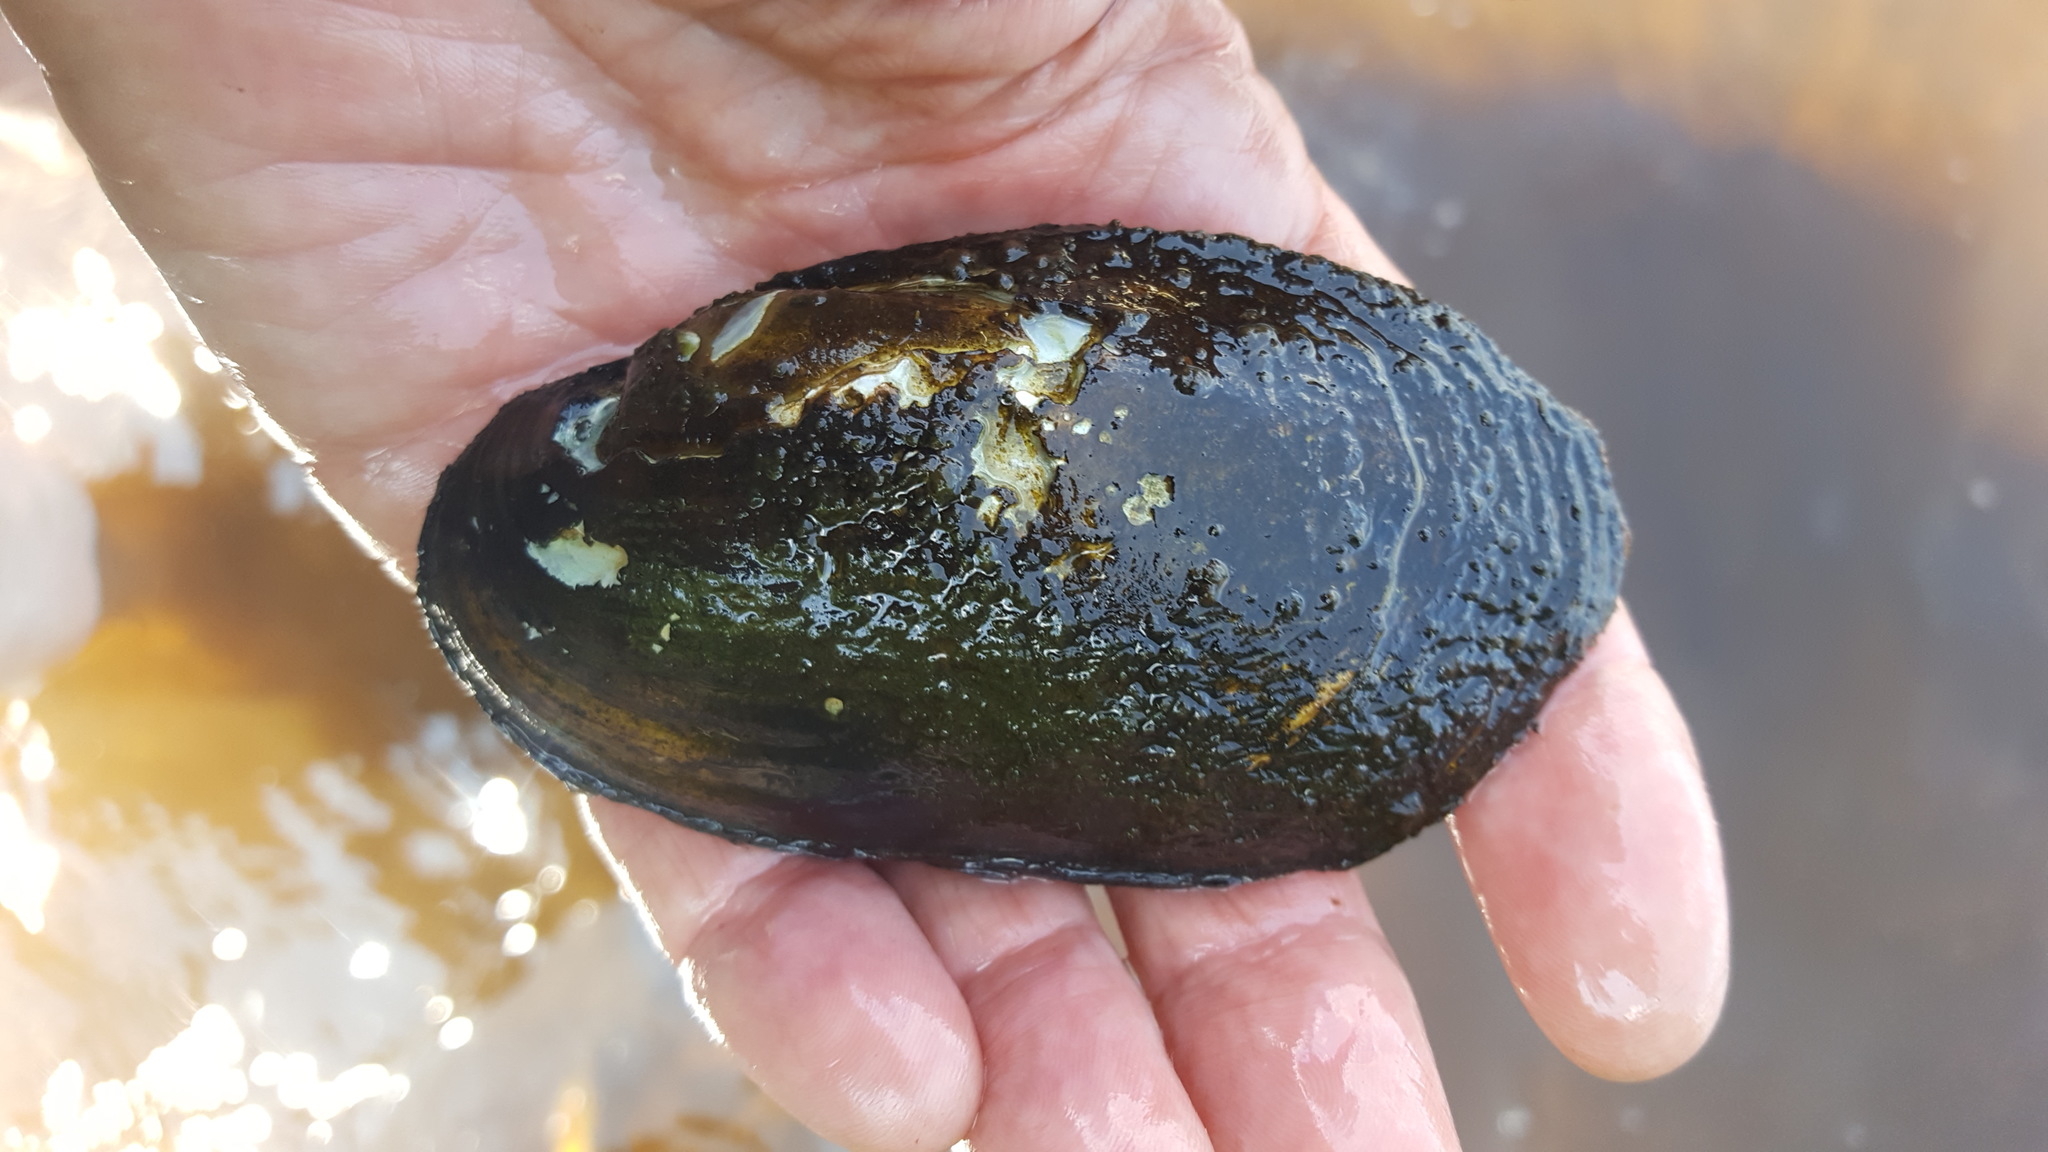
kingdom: Animalia
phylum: Mollusca
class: Bivalvia
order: Unionida
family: Unionidae
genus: Lampsilis
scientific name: Lampsilis siliquoidea
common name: Fatmucket
